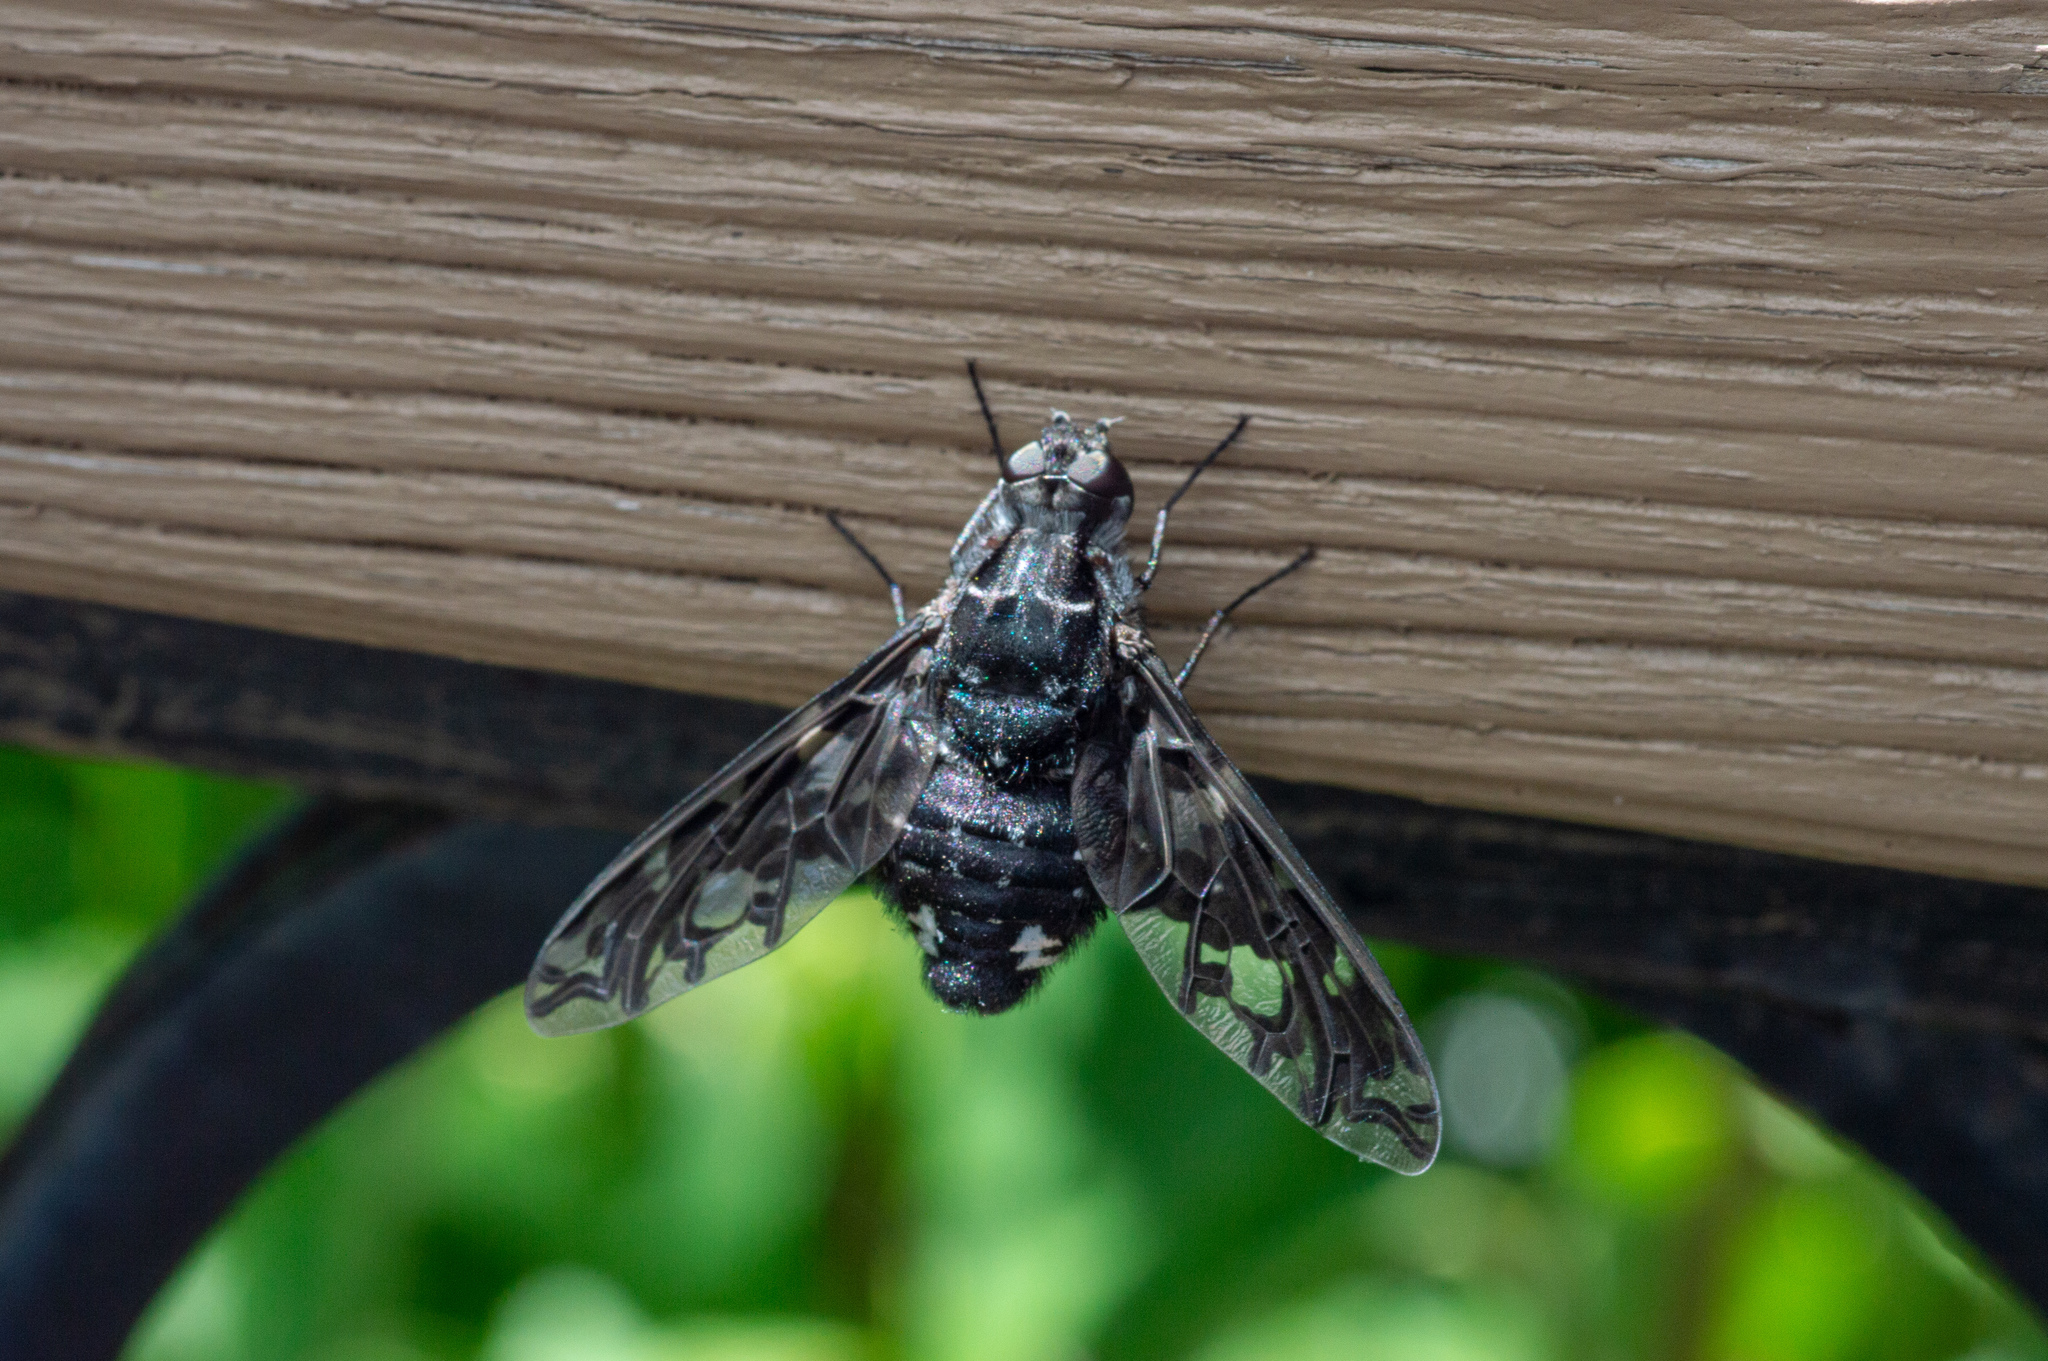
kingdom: Animalia
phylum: Arthropoda
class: Insecta
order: Diptera
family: Bombyliidae
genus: Xenox
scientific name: Xenox tigrinus
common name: Tiger bee fly
